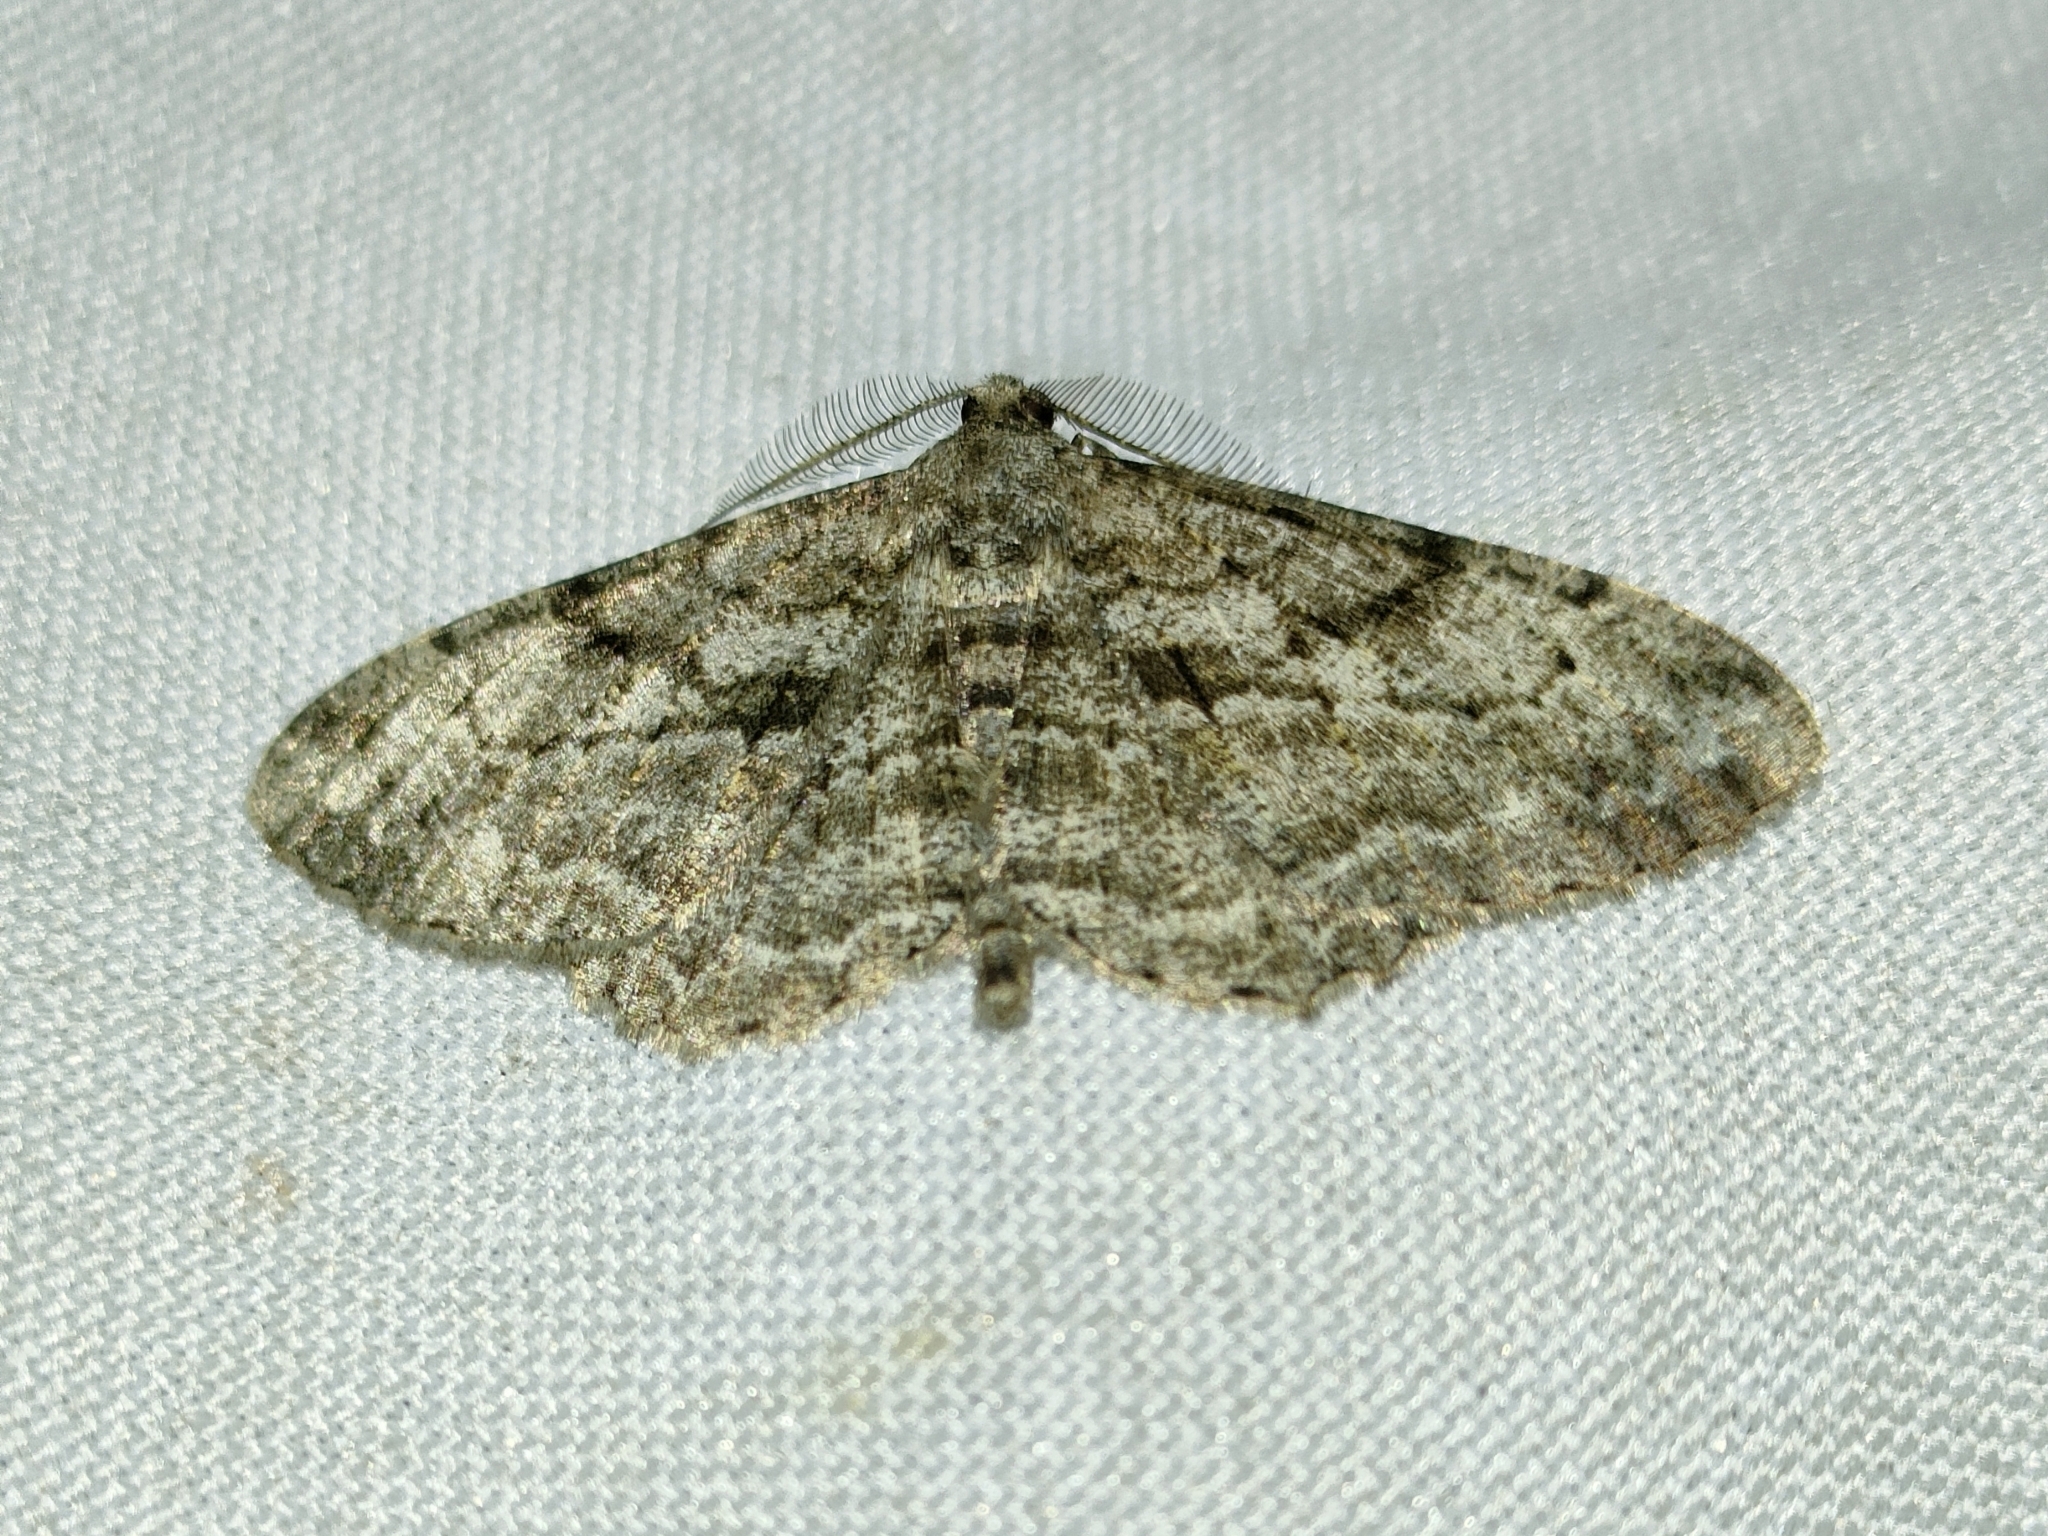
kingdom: Animalia
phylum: Arthropoda
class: Insecta
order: Lepidoptera
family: Geometridae
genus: Peribatodes
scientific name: Peribatodes rhomboidaria
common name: Willow beauty
